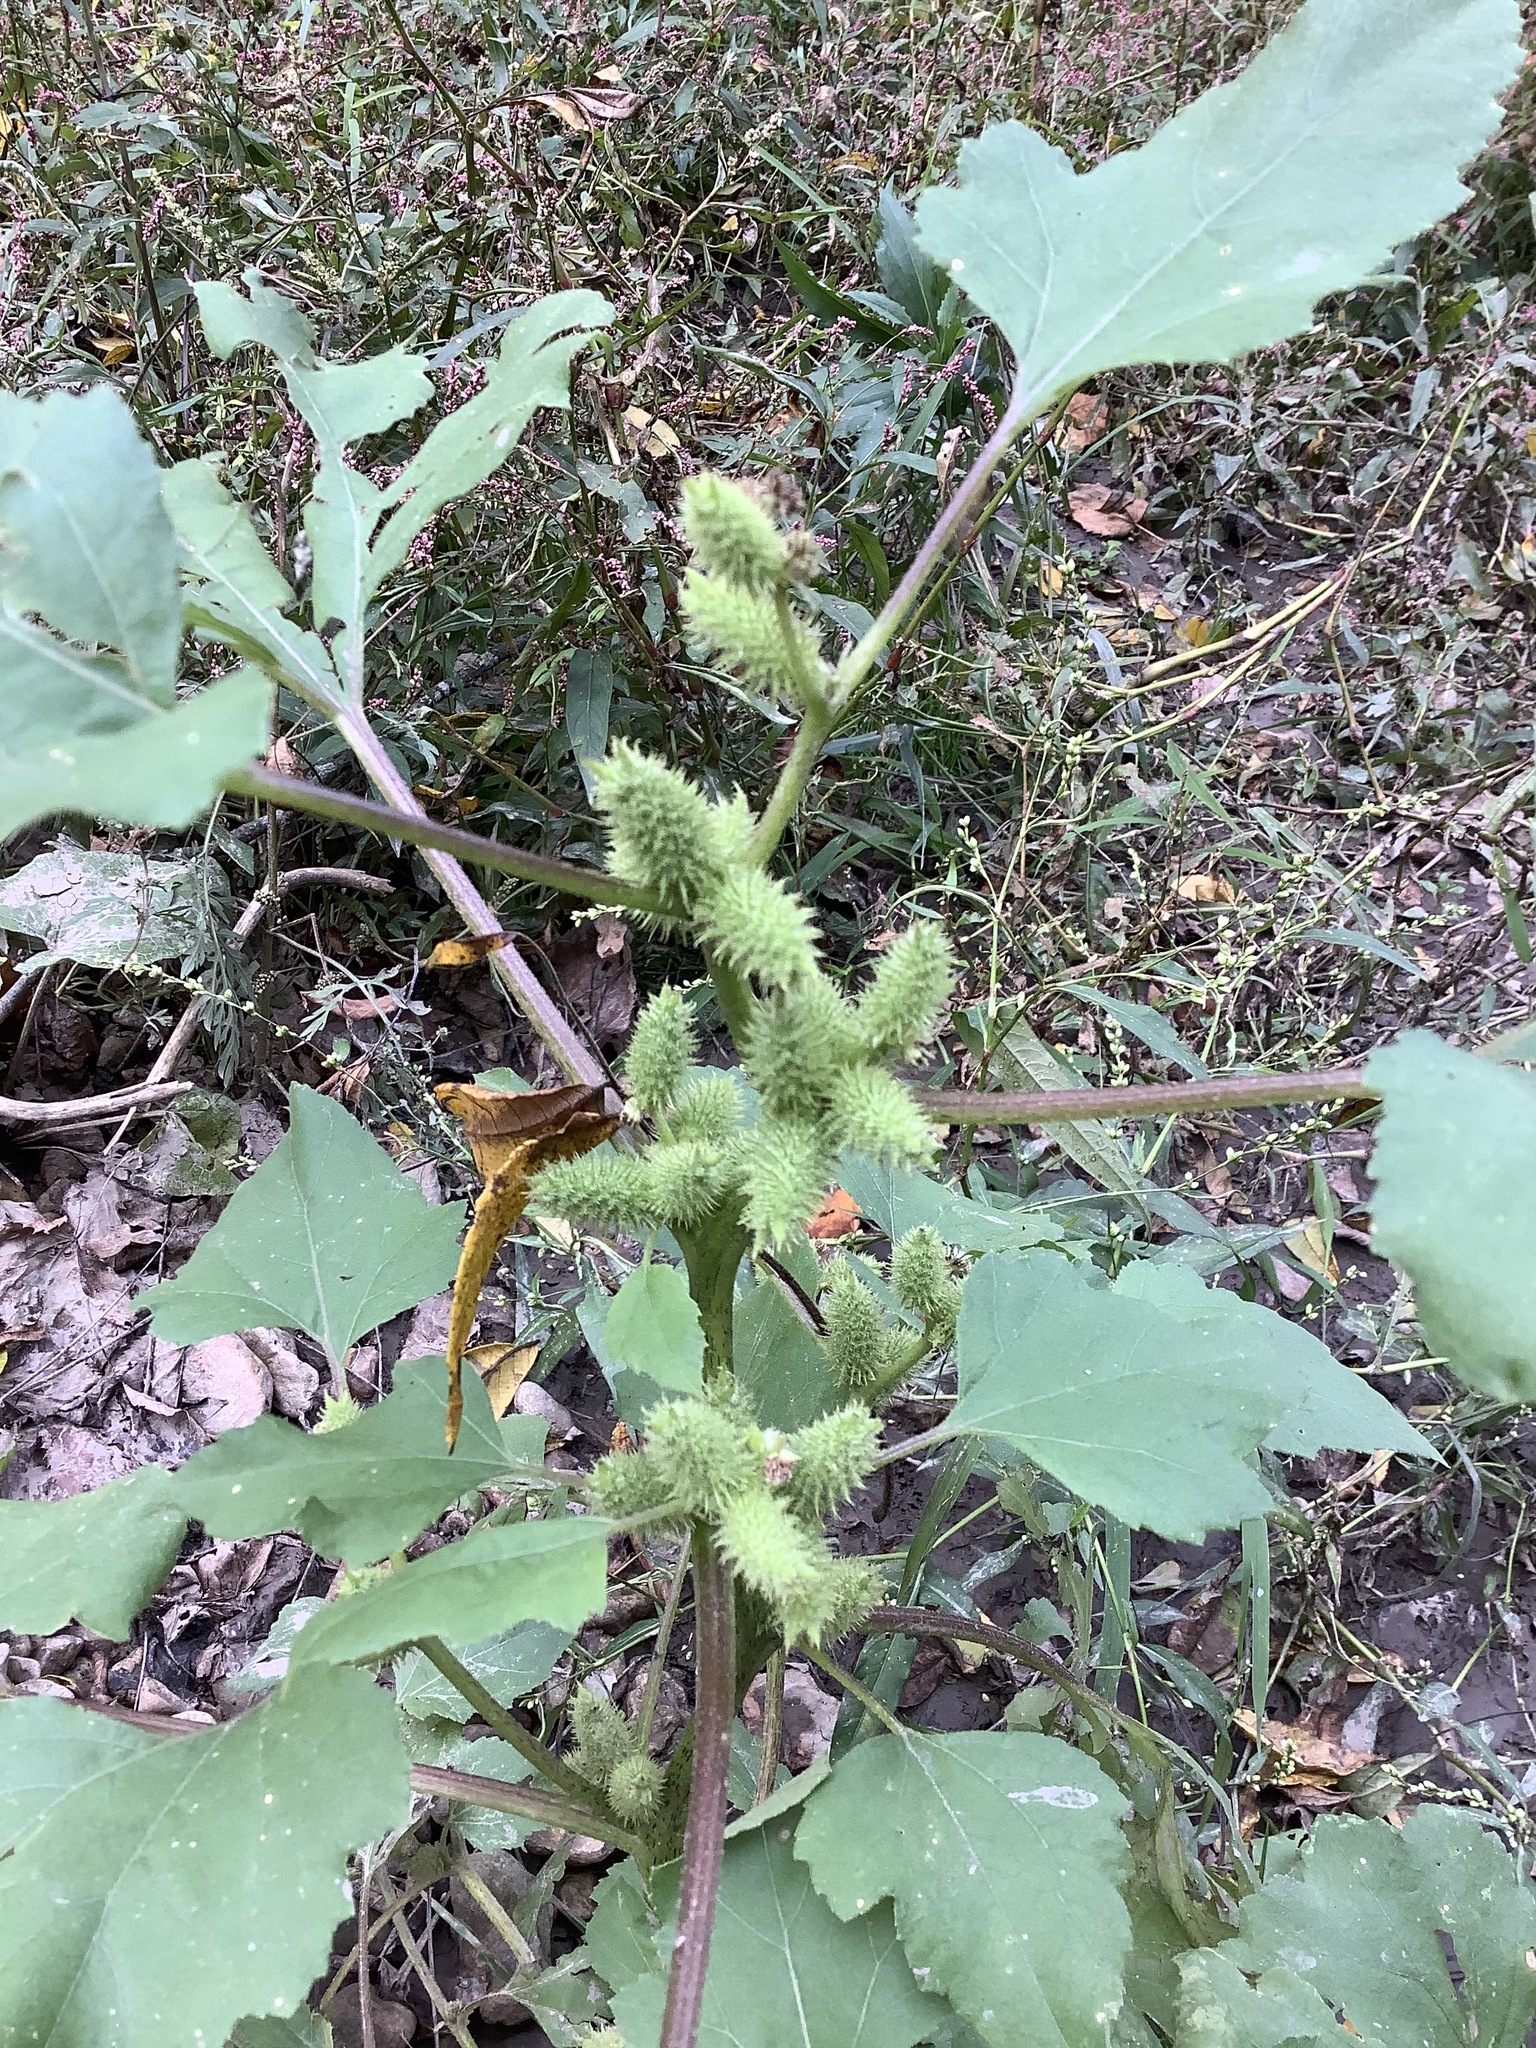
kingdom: Plantae
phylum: Tracheophyta
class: Magnoliopsida
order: Asterales
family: Asteraceae
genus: Xanthium
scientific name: Xanthium strumarium
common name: Rough cocklebur
